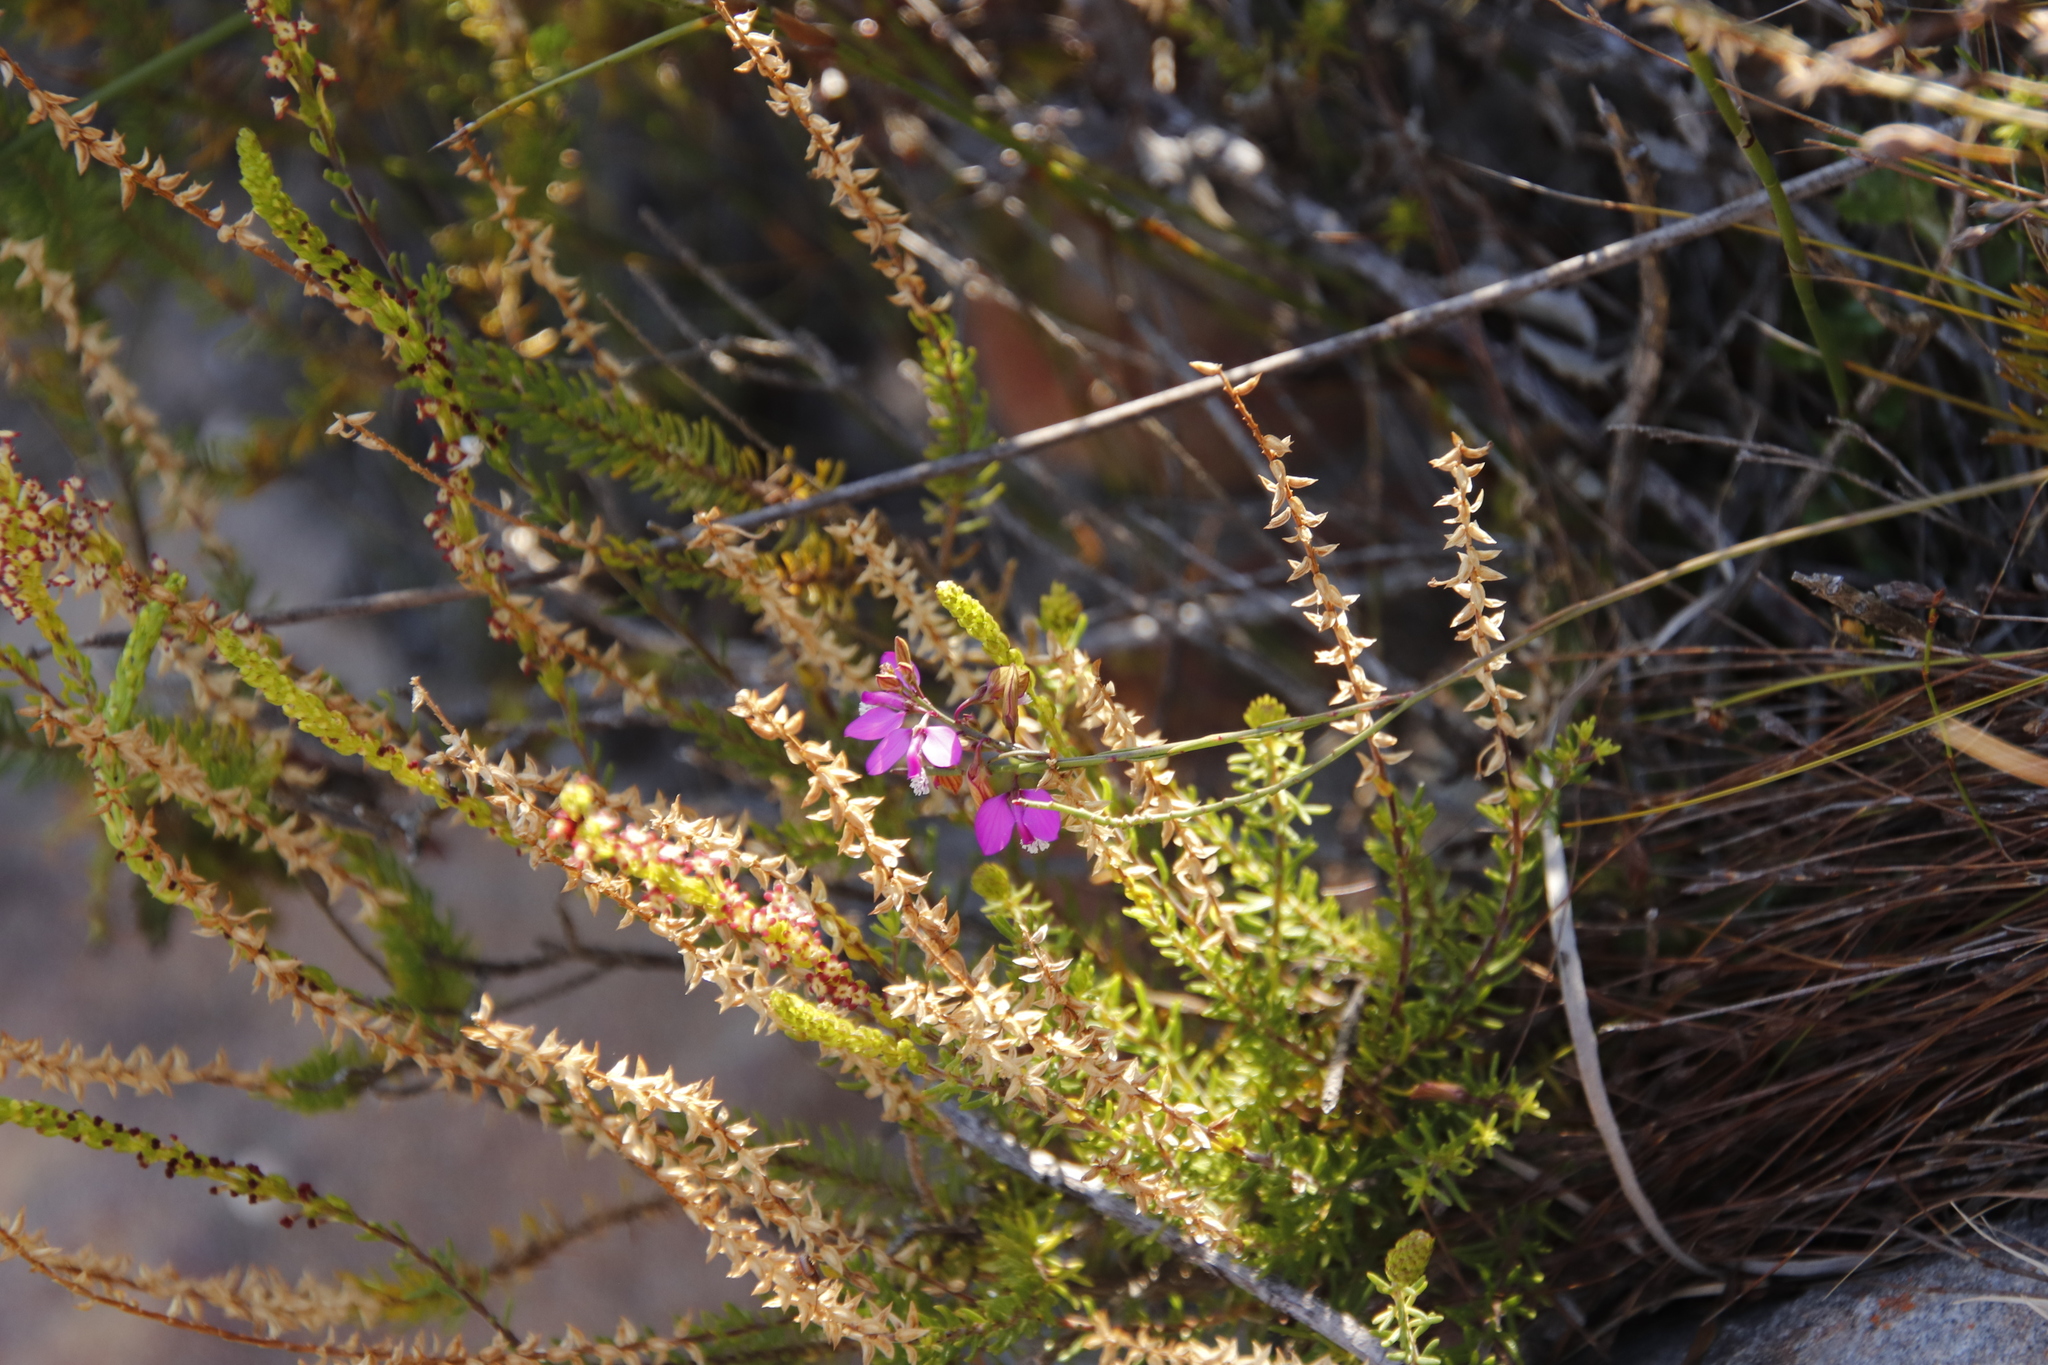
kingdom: Plantae
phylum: Tracheophyta
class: Magnoliopsida
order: Fabales
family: Polygalaceae
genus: Polygala
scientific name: Polygala garcini
